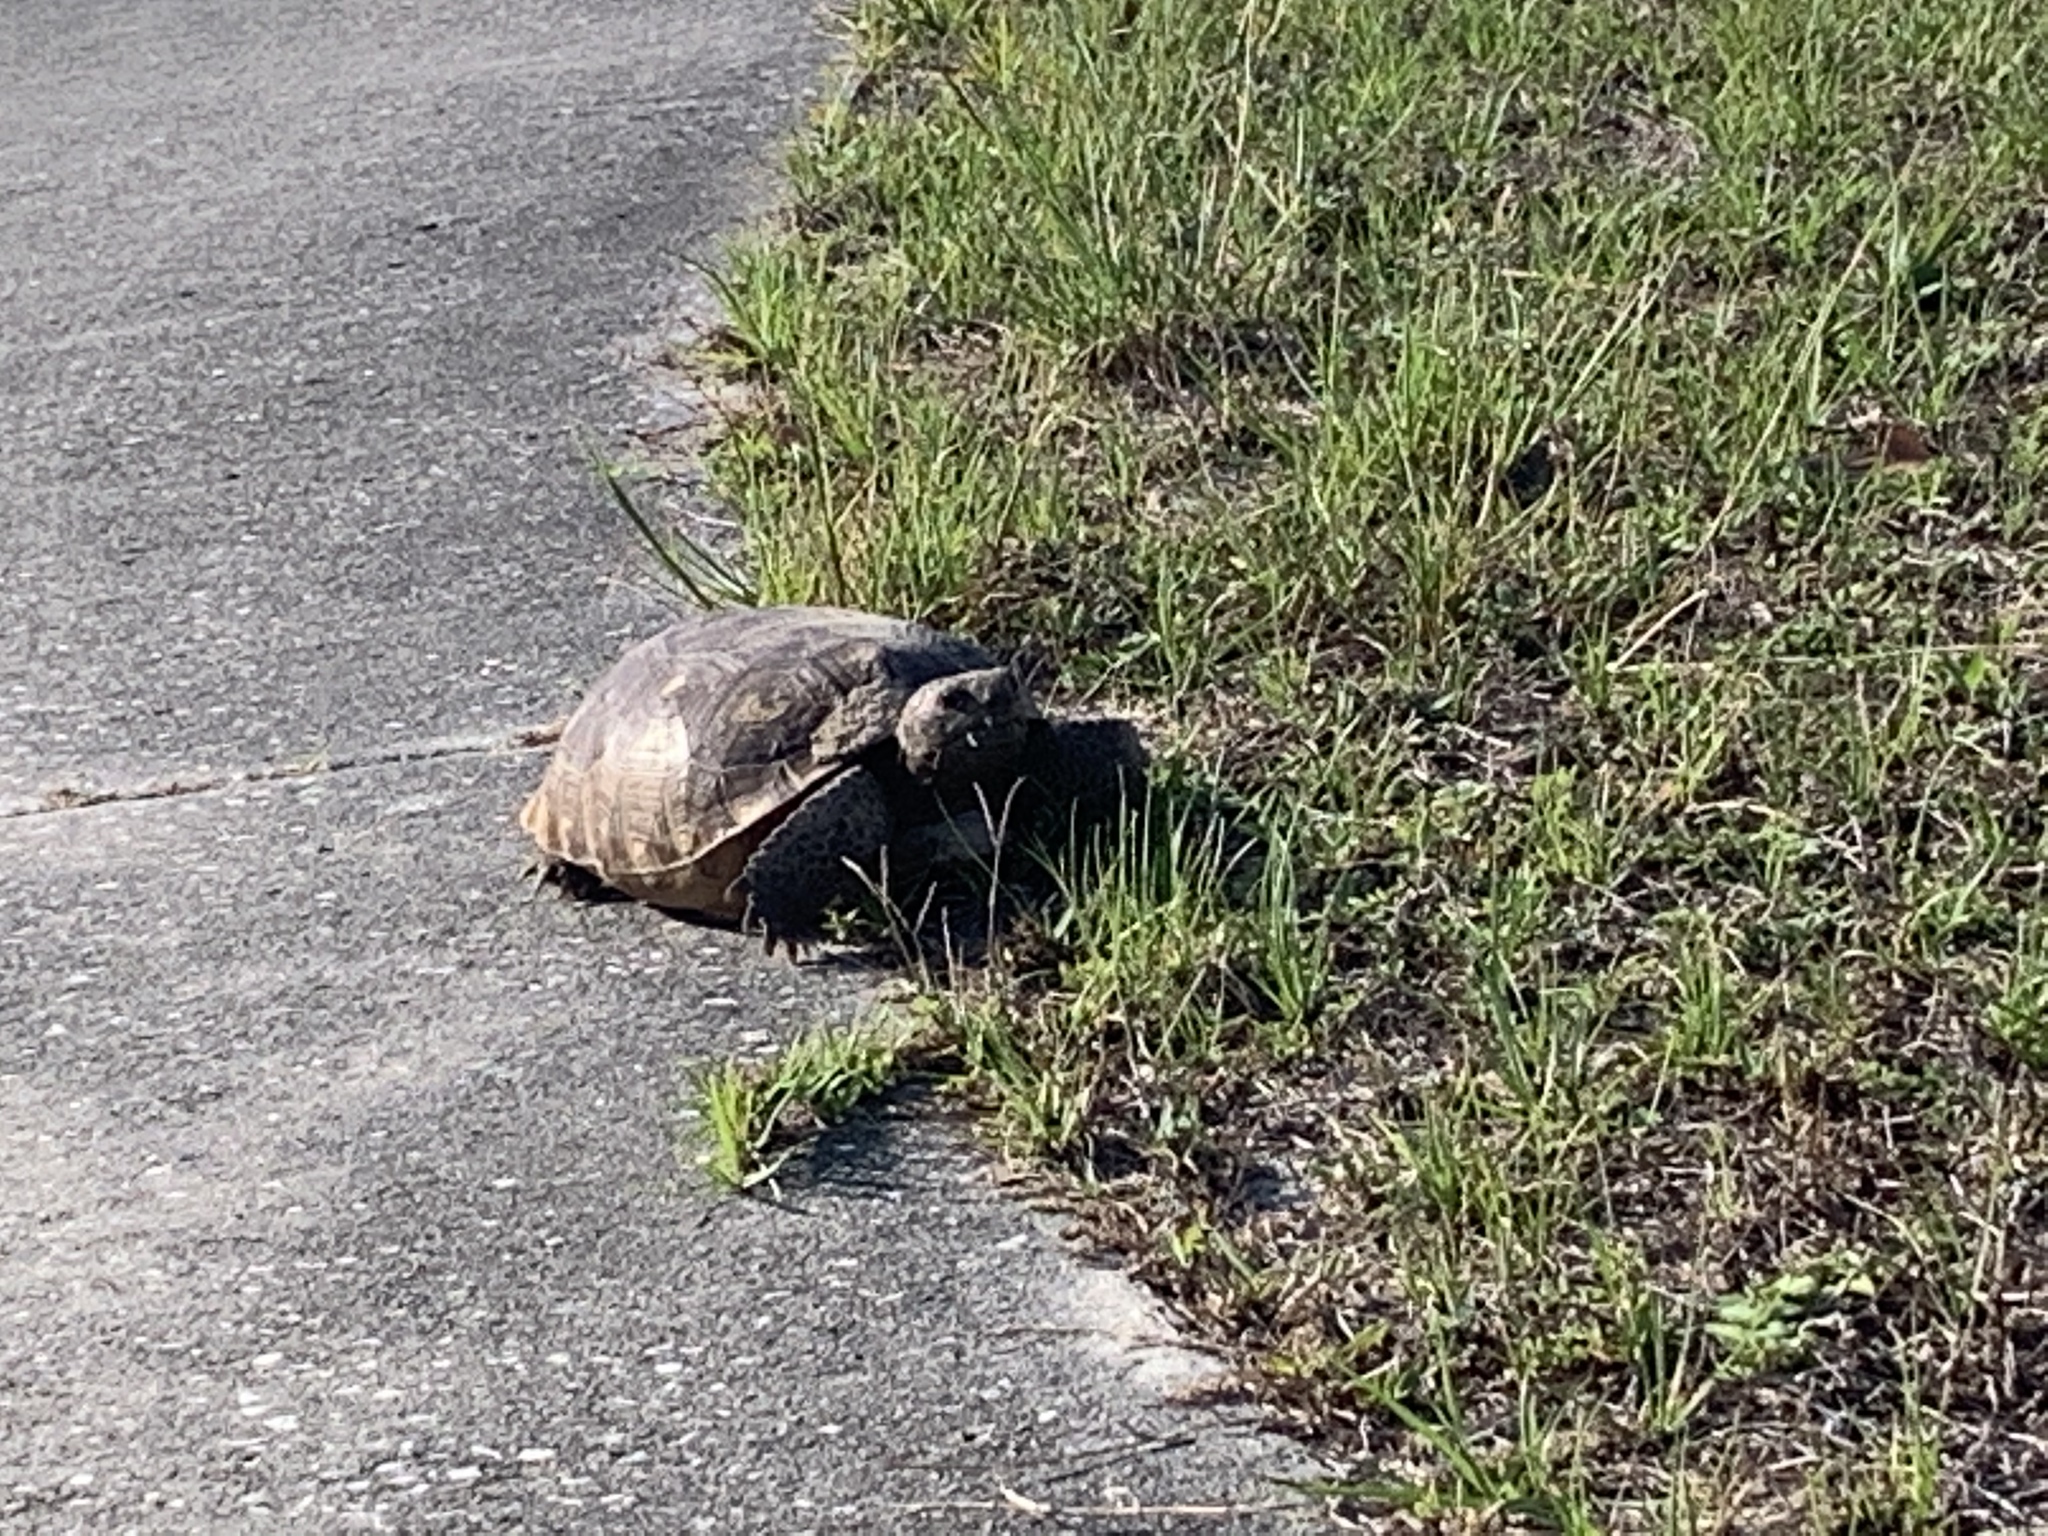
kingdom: Animalia
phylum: Chordata
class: Testudines
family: Testudinidae
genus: Gopherus
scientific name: Gopherus polyphemus
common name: Florida gopher tortoise
